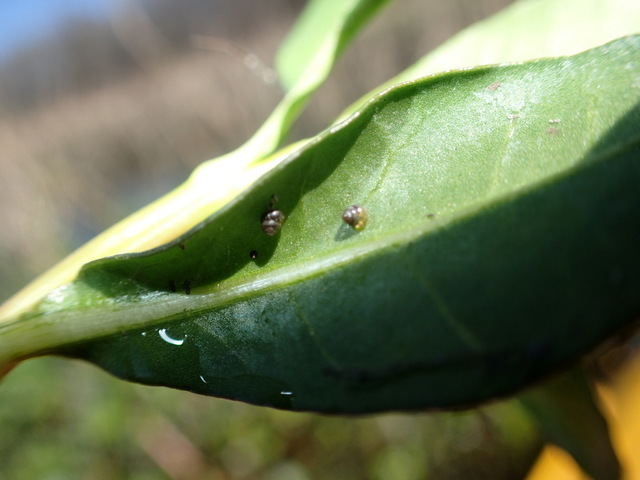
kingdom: Animalia
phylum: Mollusca
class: Gastropoda
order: Stylommatophora
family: Cochlicopidae
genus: Cochlicopa
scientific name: Cochlicopa lubrica
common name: Glossy pillar snail
